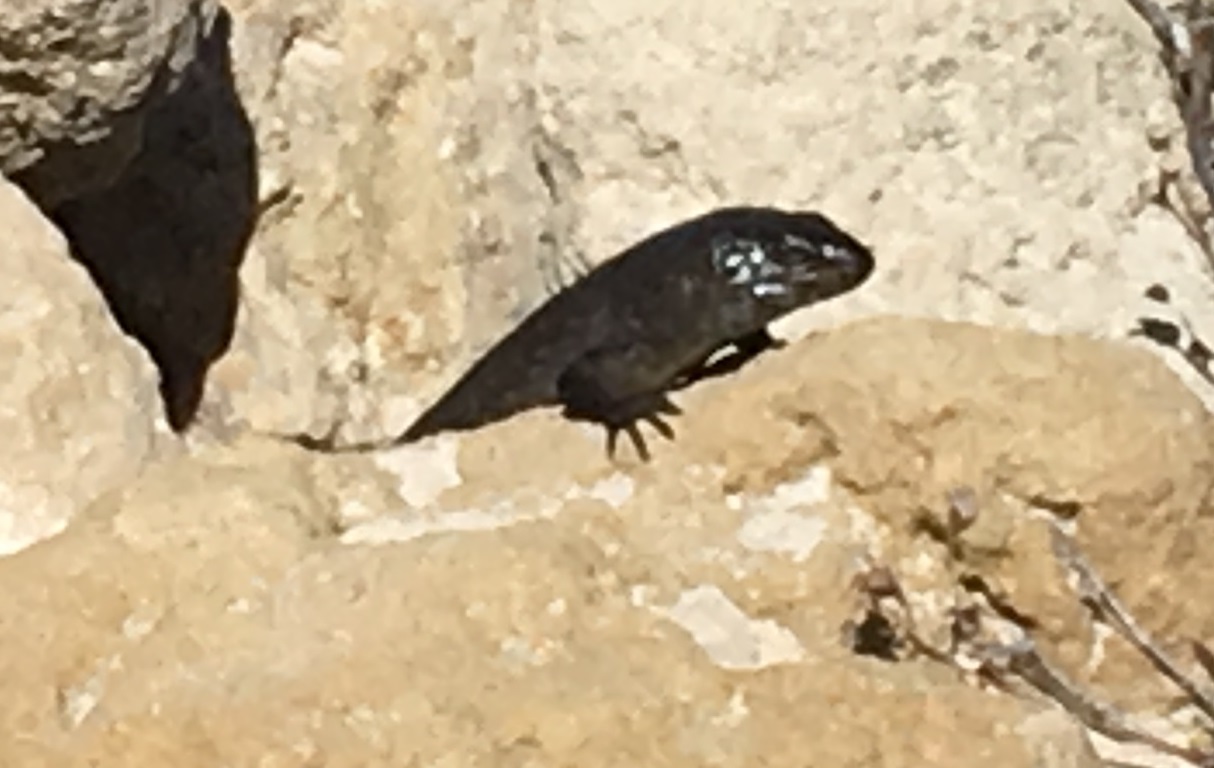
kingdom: Animalia
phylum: Chordata
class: Squamata
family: Scincidae
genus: Egernia
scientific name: Egernia kingii
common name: King's skink
